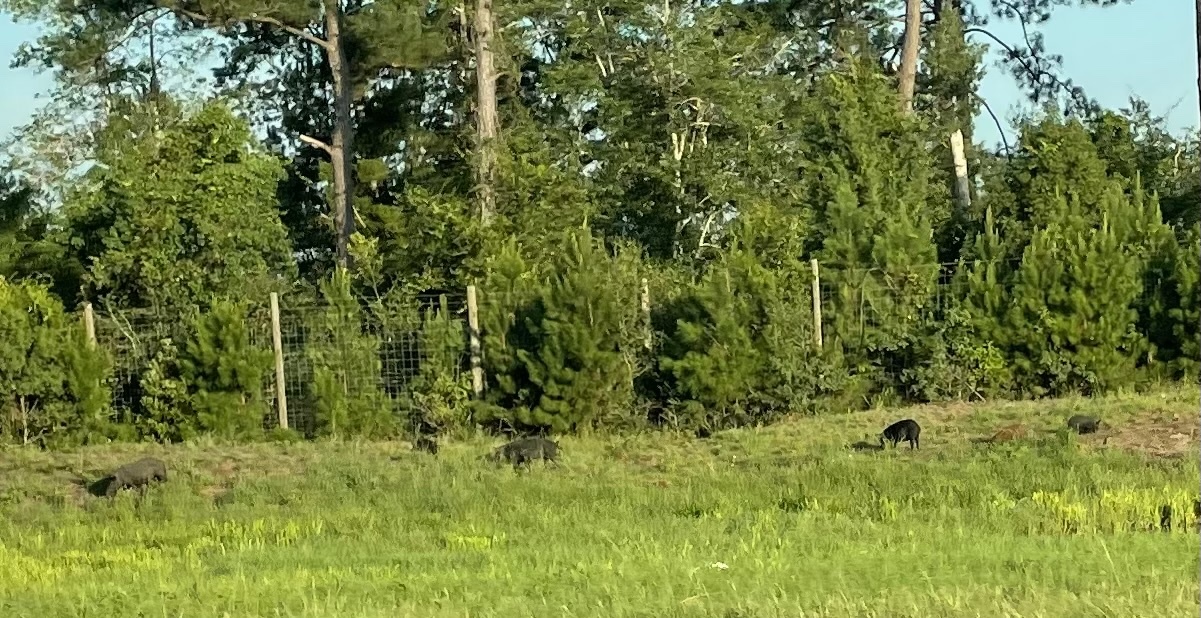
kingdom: Animalia
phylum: Chordata
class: Mammalia
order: Artiodactyla
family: Suidae
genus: Sus
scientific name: Sus scrofa
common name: Wild boar
